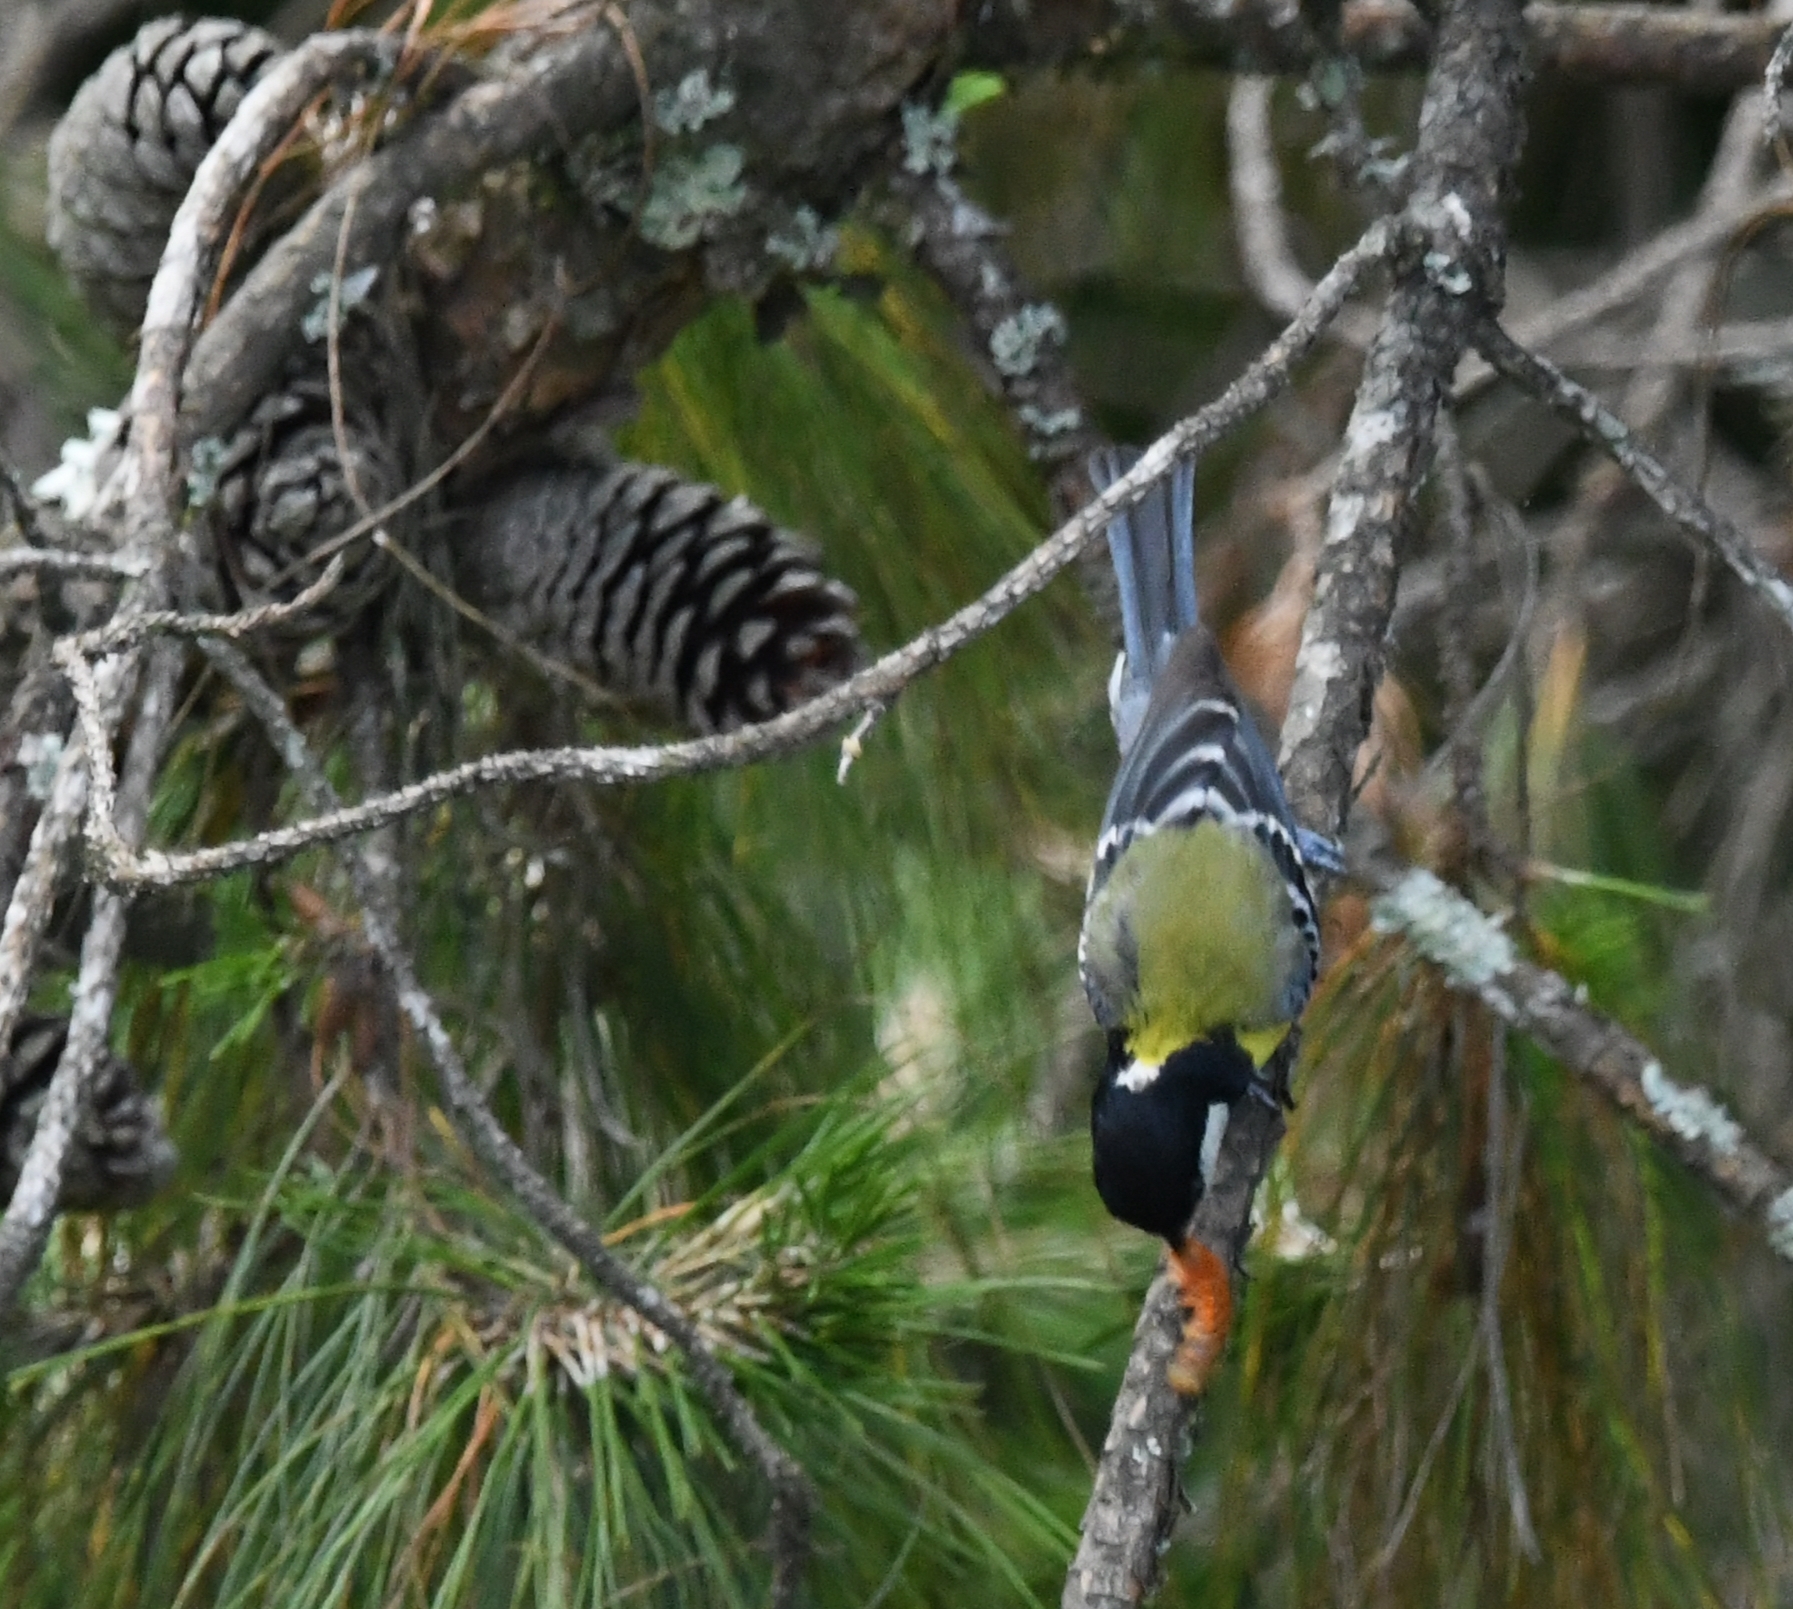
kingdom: Animalia
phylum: Chordata
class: Aves
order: Passeriformes
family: Paridae
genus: Parus
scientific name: Parus monticolus
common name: Green-backed tit
